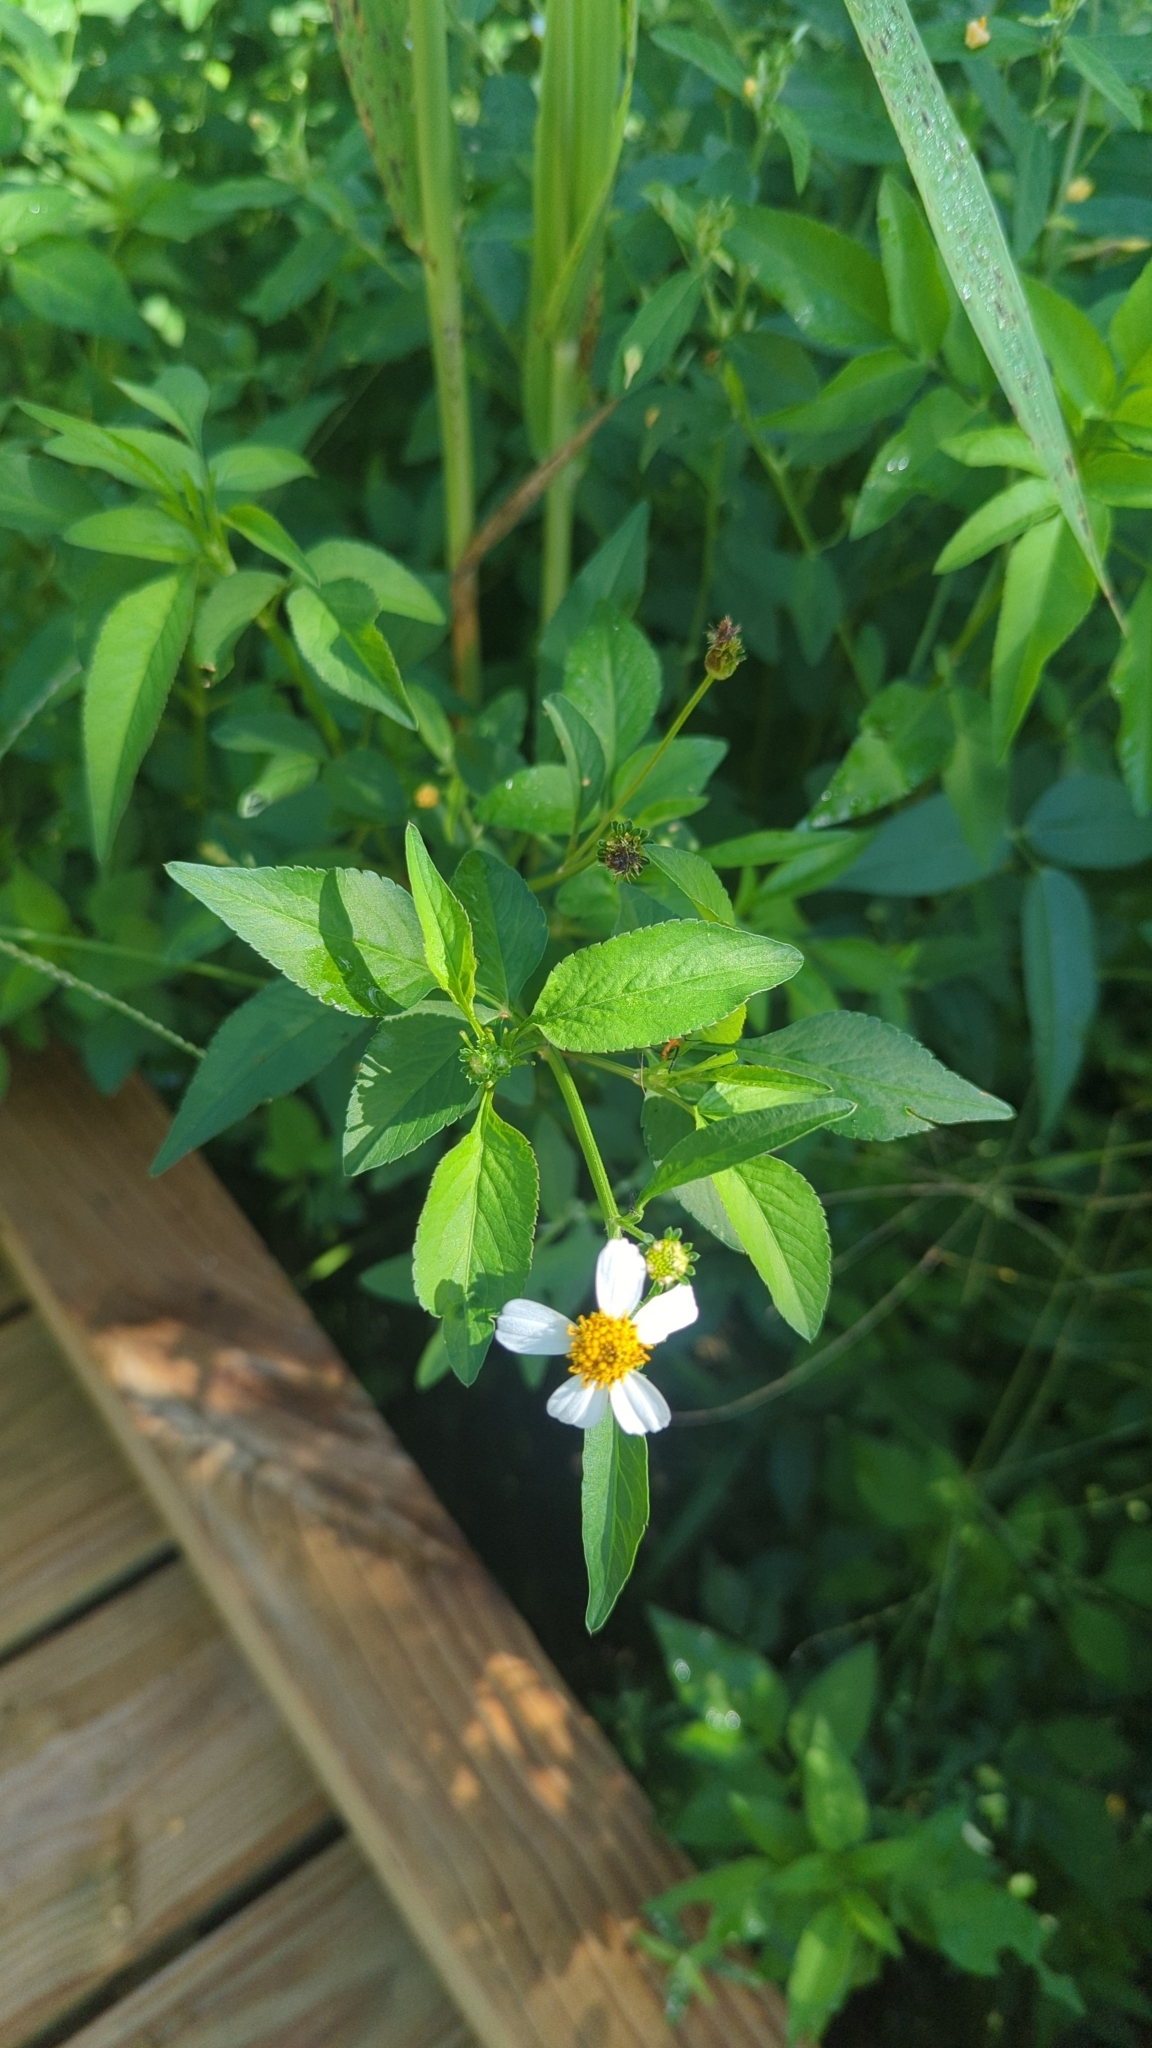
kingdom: Plantae
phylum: Tracheophyta
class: Magnoliopsida
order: Asterales
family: Asteraceae
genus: Bidens
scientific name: Bidens alba
